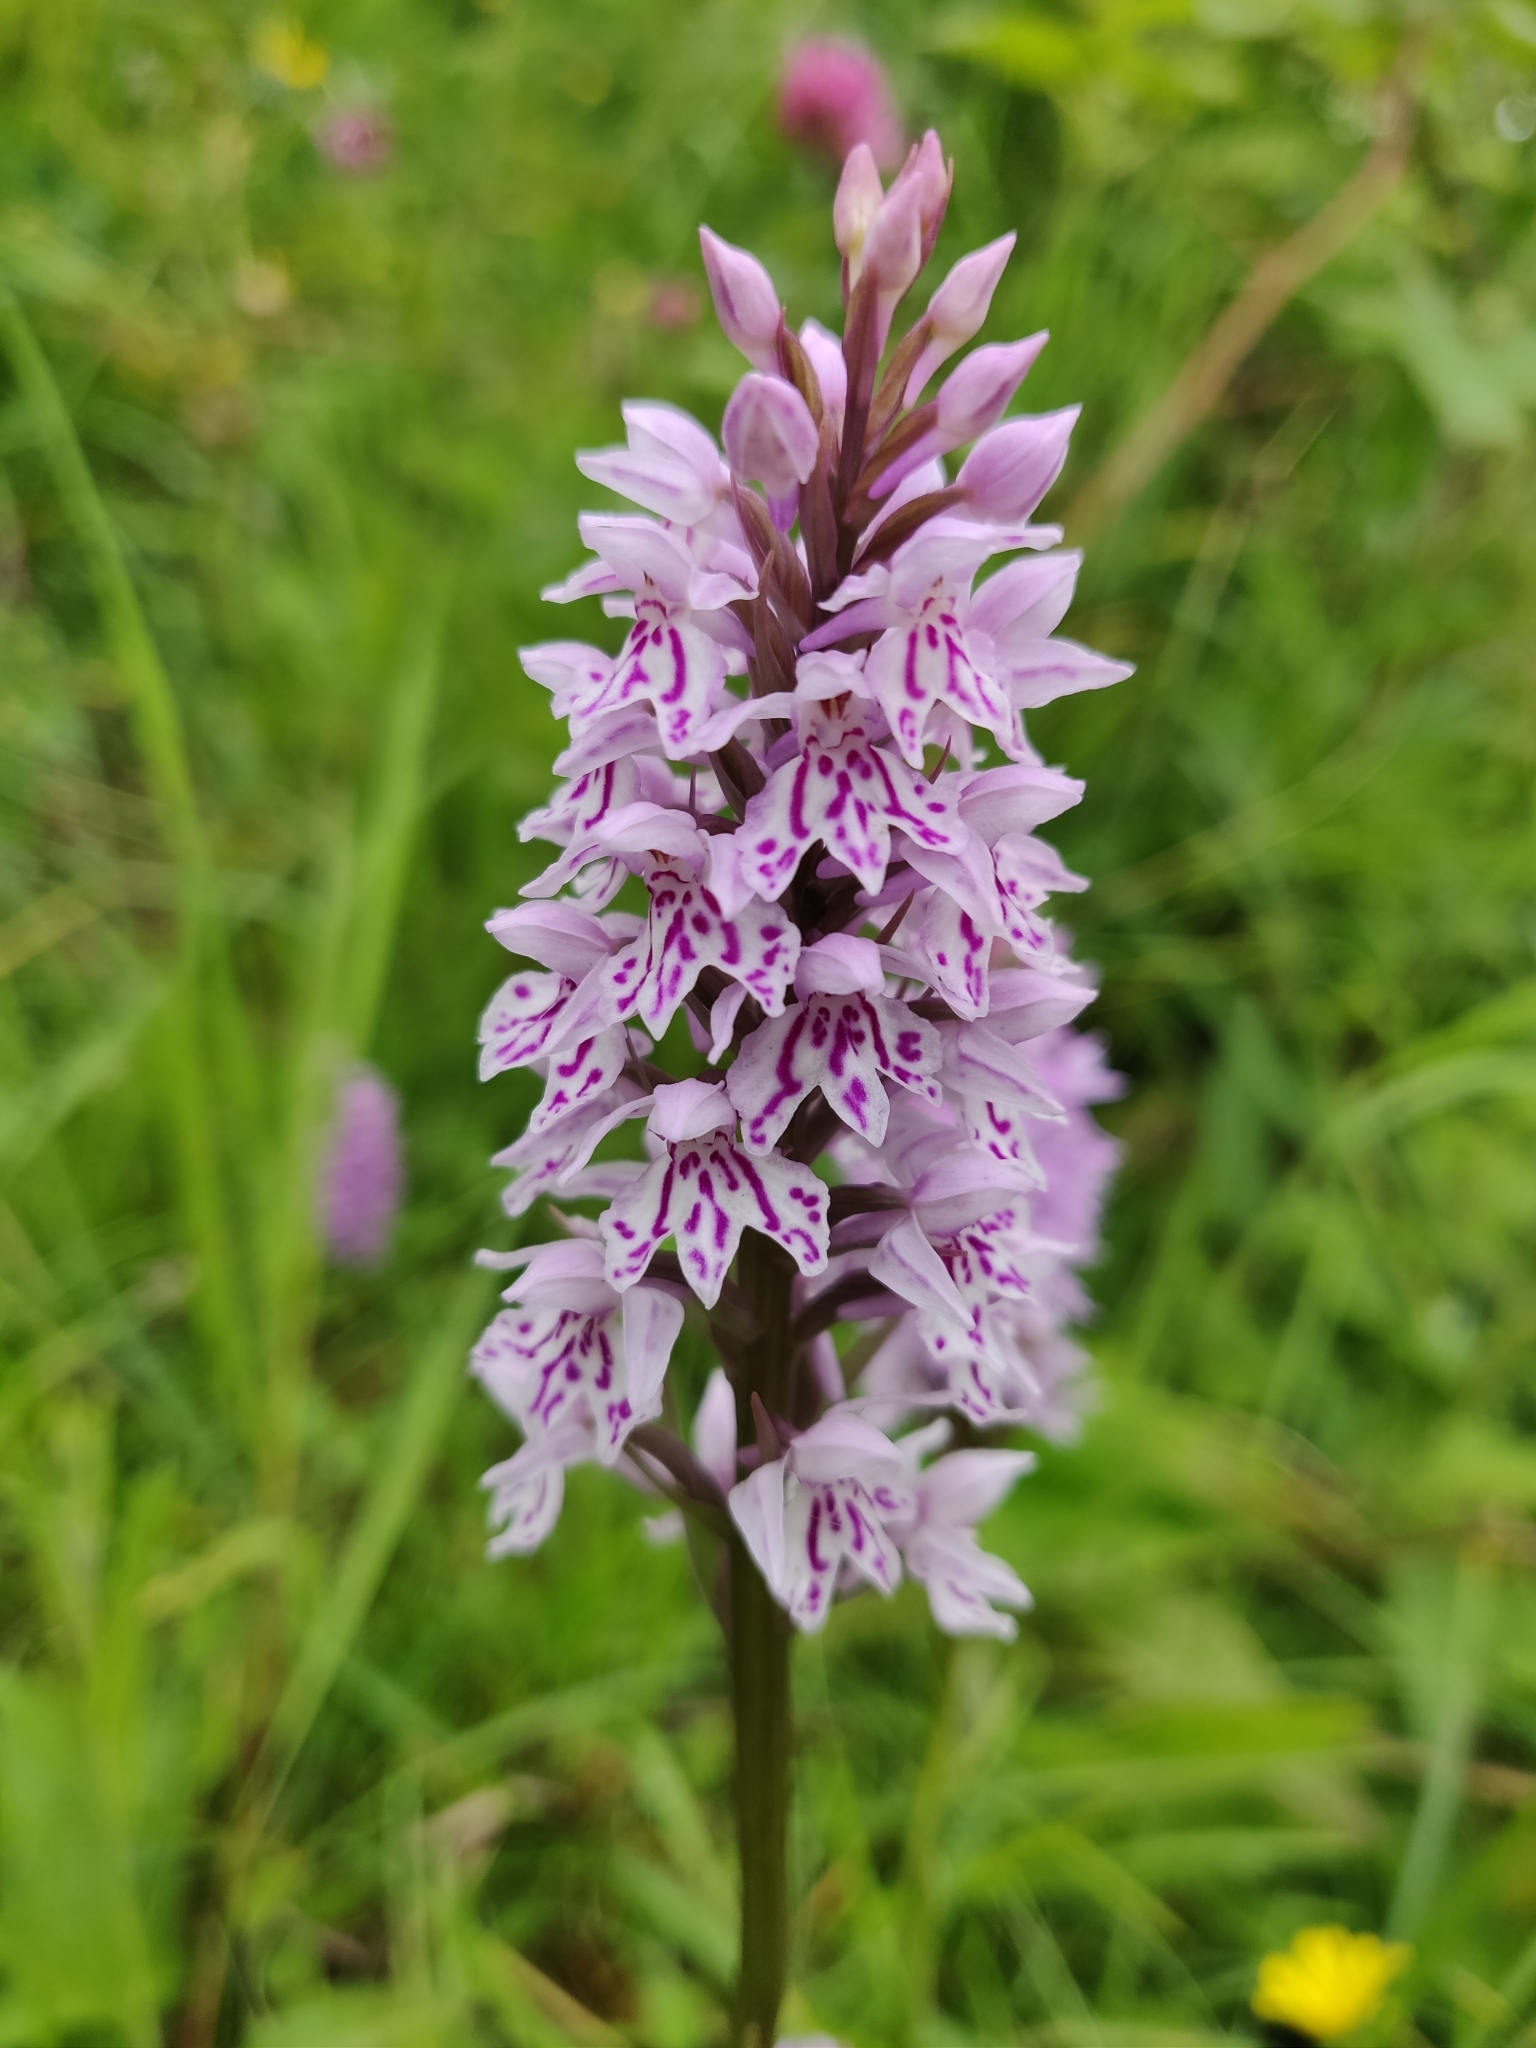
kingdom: Plantae
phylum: Tracheophyta
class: Liliopsida
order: Asparagales
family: Orchidaceae
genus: Dactylorhiza
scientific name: Dactylorhiza maculata
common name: Heath spotted-orchid
